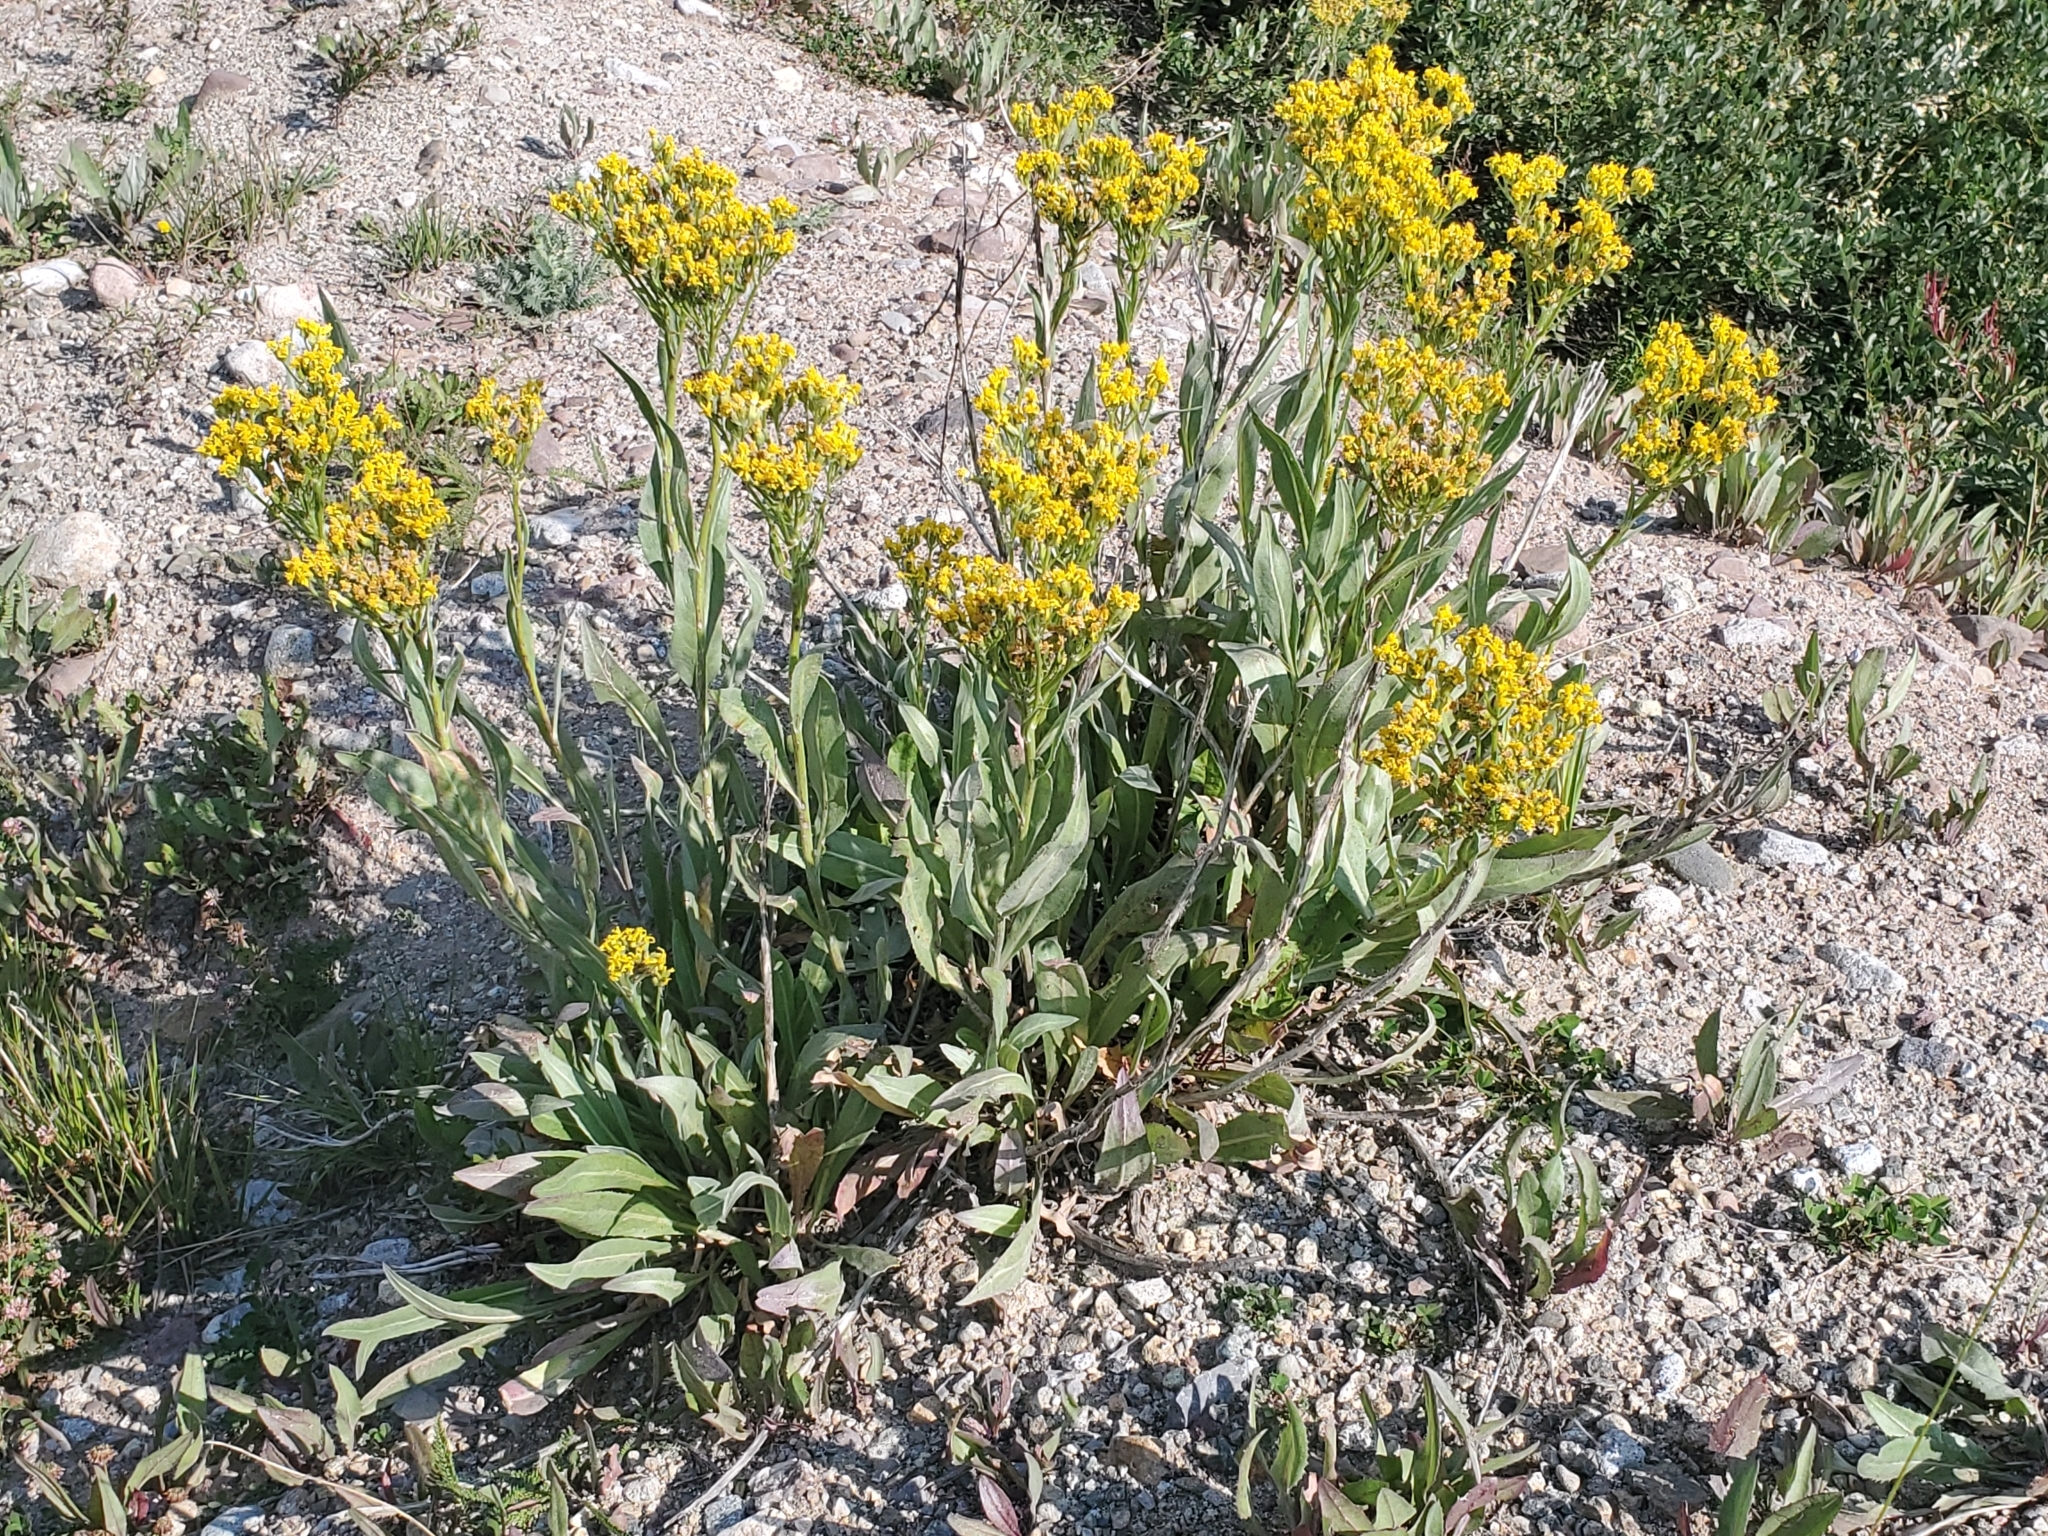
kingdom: Plantae
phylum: Tracheophyta
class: Magnoliopsida
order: Asterales
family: Asteraceae
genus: Senecio
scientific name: Senecio atratus
